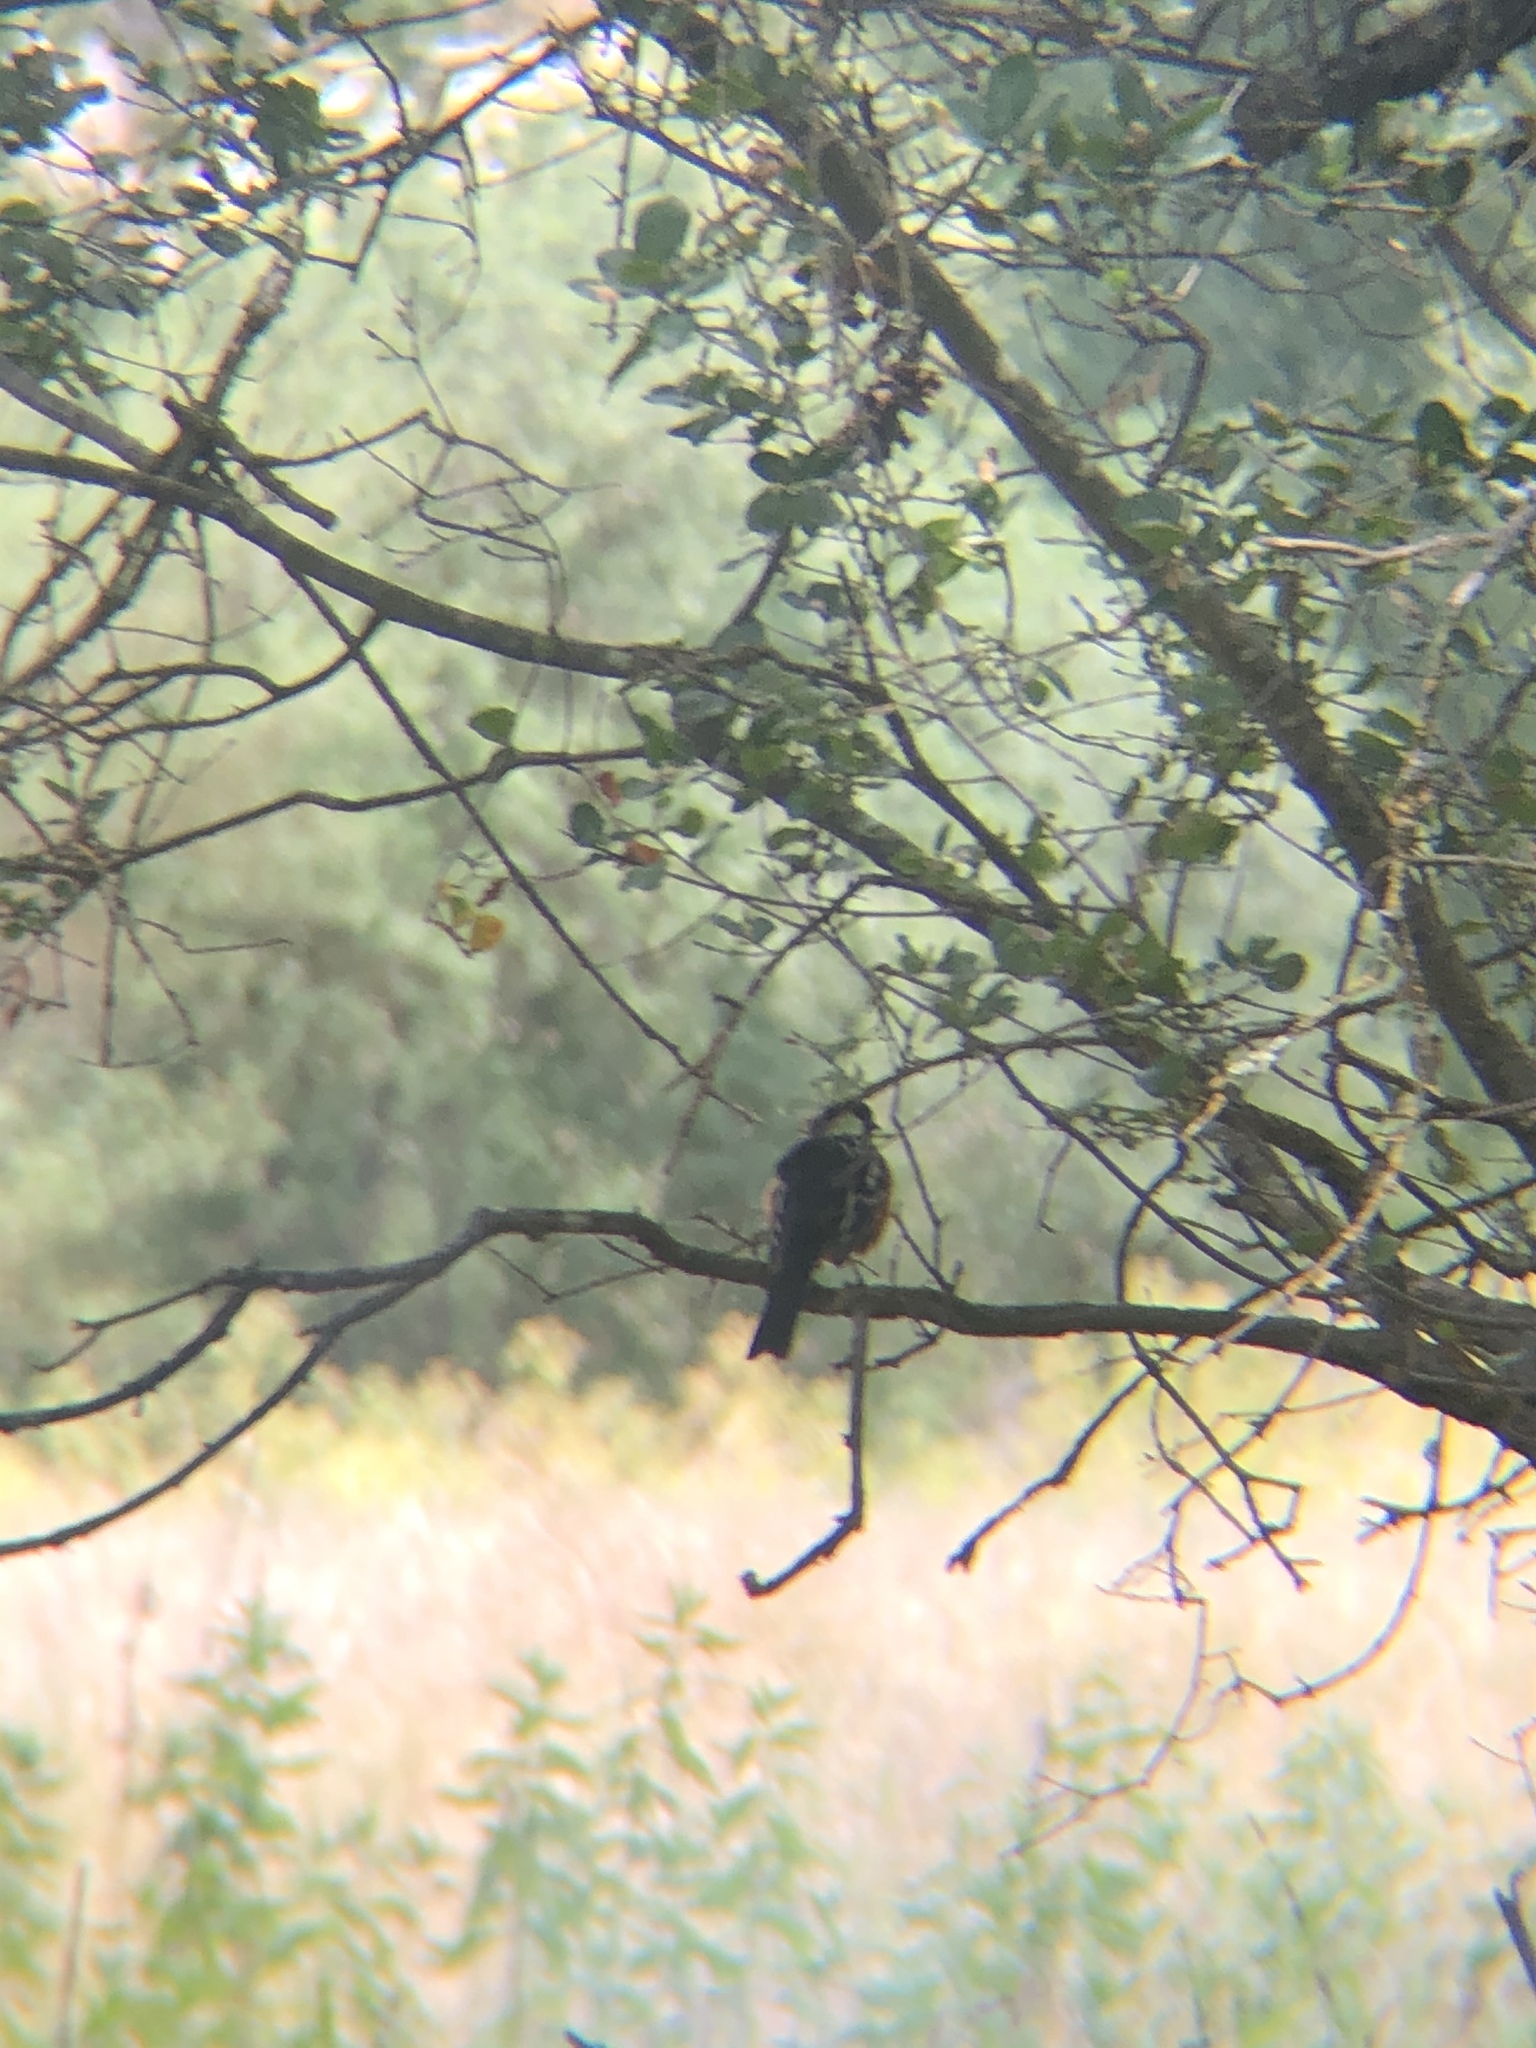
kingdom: Animalia
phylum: Chordata
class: Aves
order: Passeriformes
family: Passerellidae
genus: Pipilo
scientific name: Pipilo maculatus
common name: Spotted towhee
